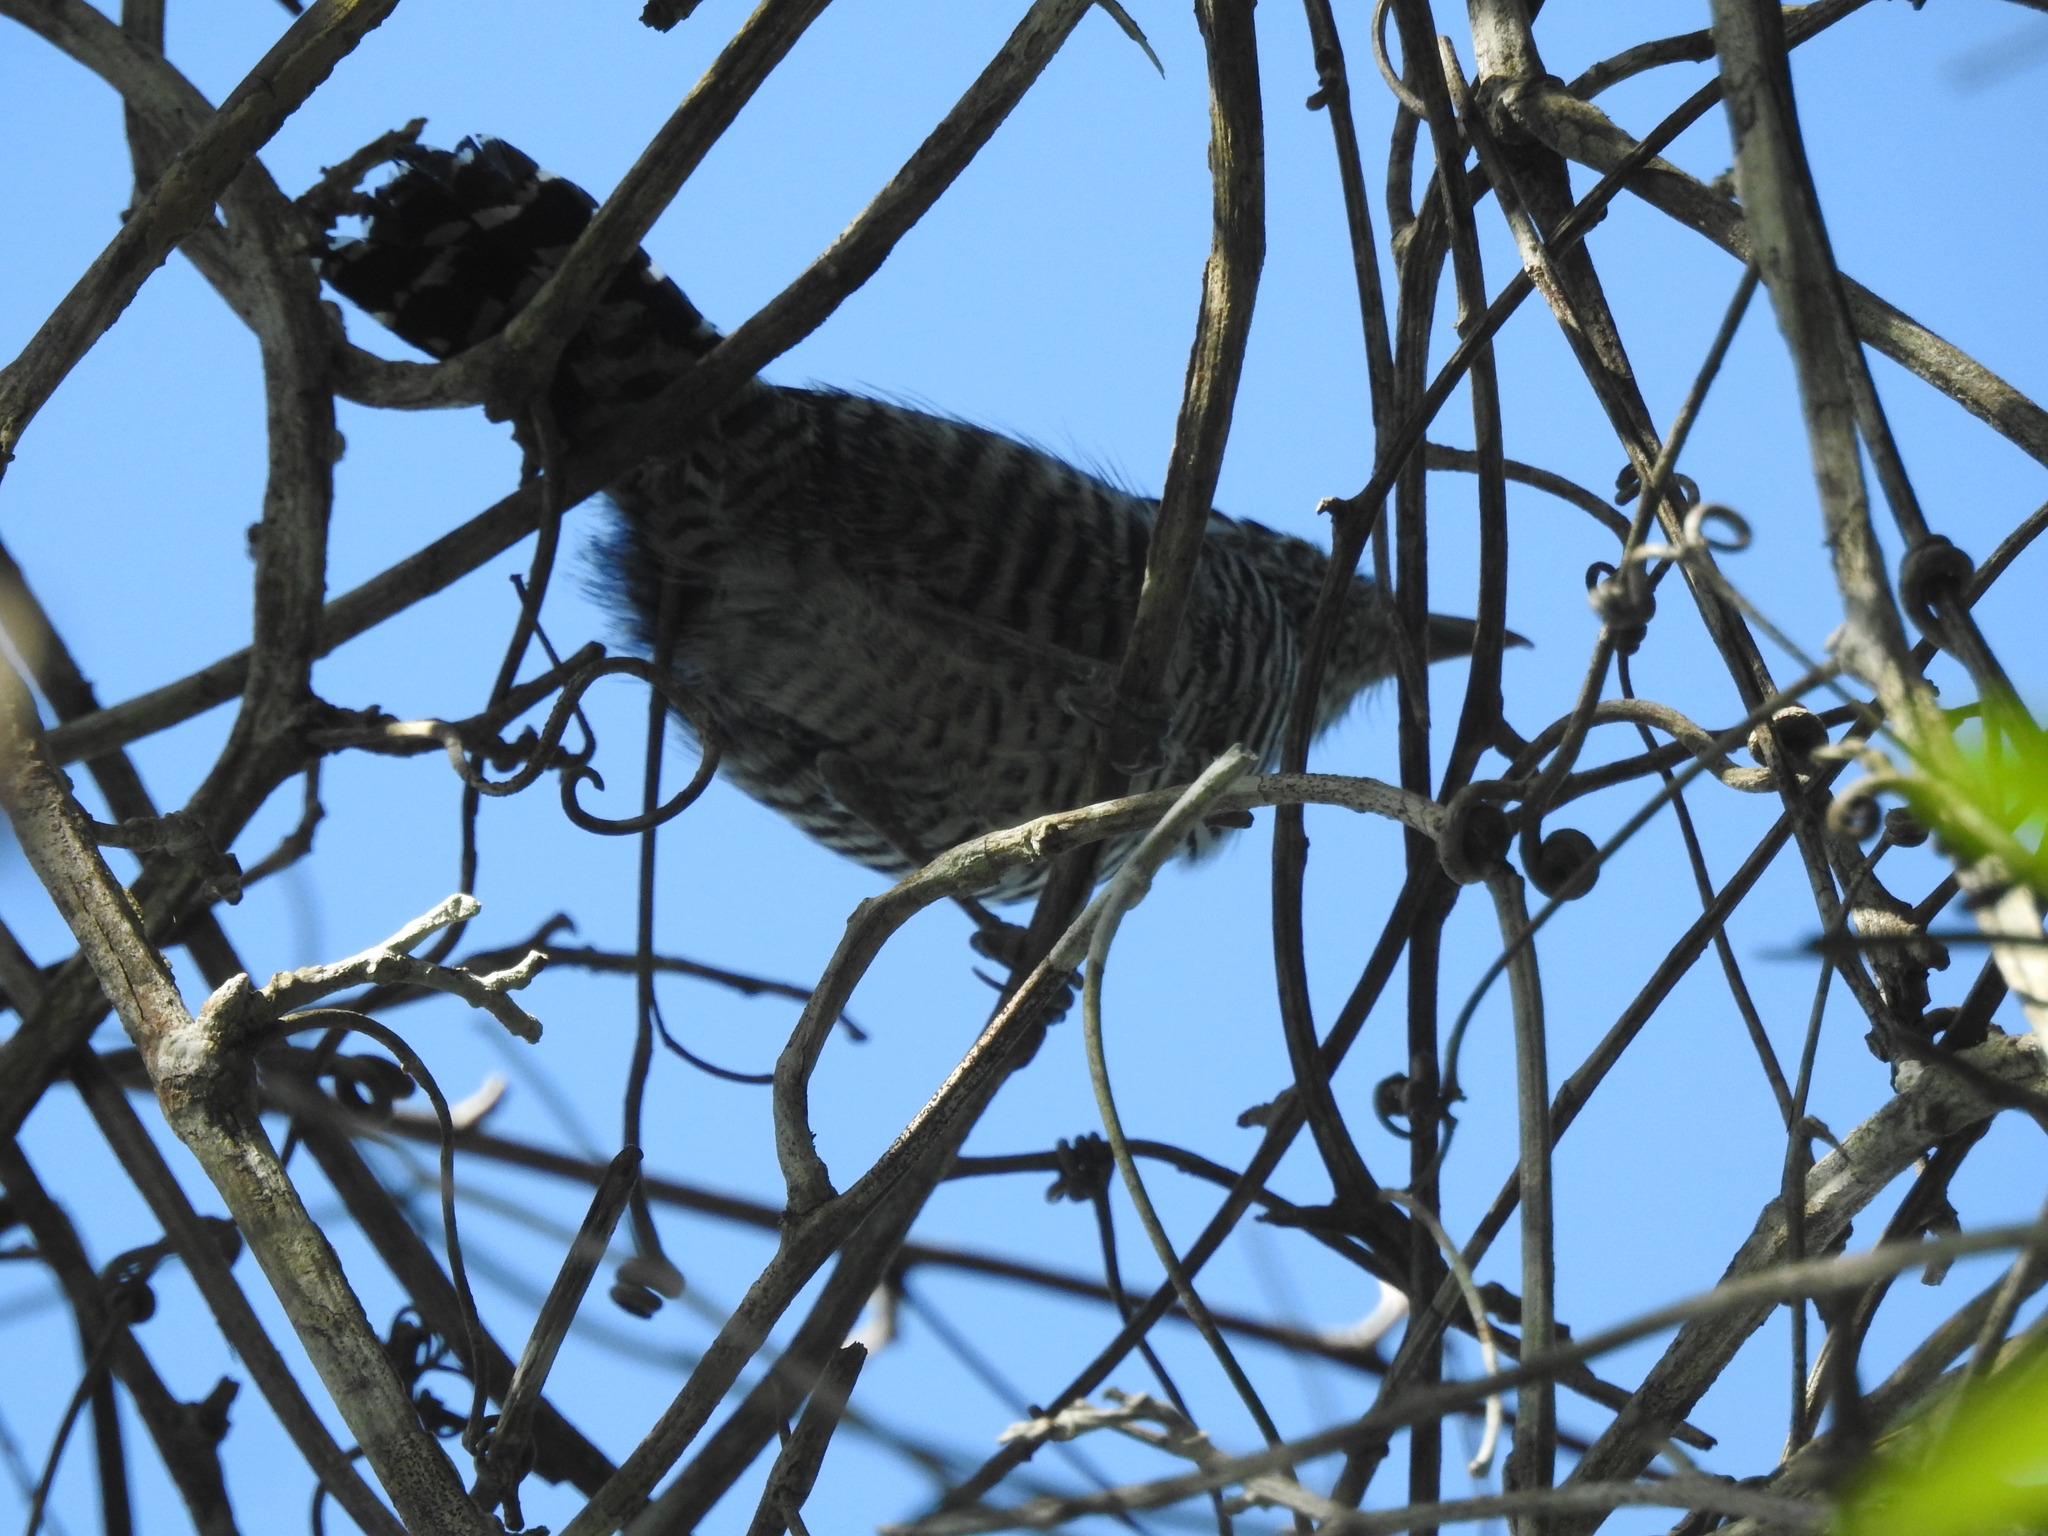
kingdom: Animalia
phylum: Chordata
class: Aves
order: Passeriformes
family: Thamnophilidae
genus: Thamnophilus
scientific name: Thamnophilus doliatus
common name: Barred antshrike
